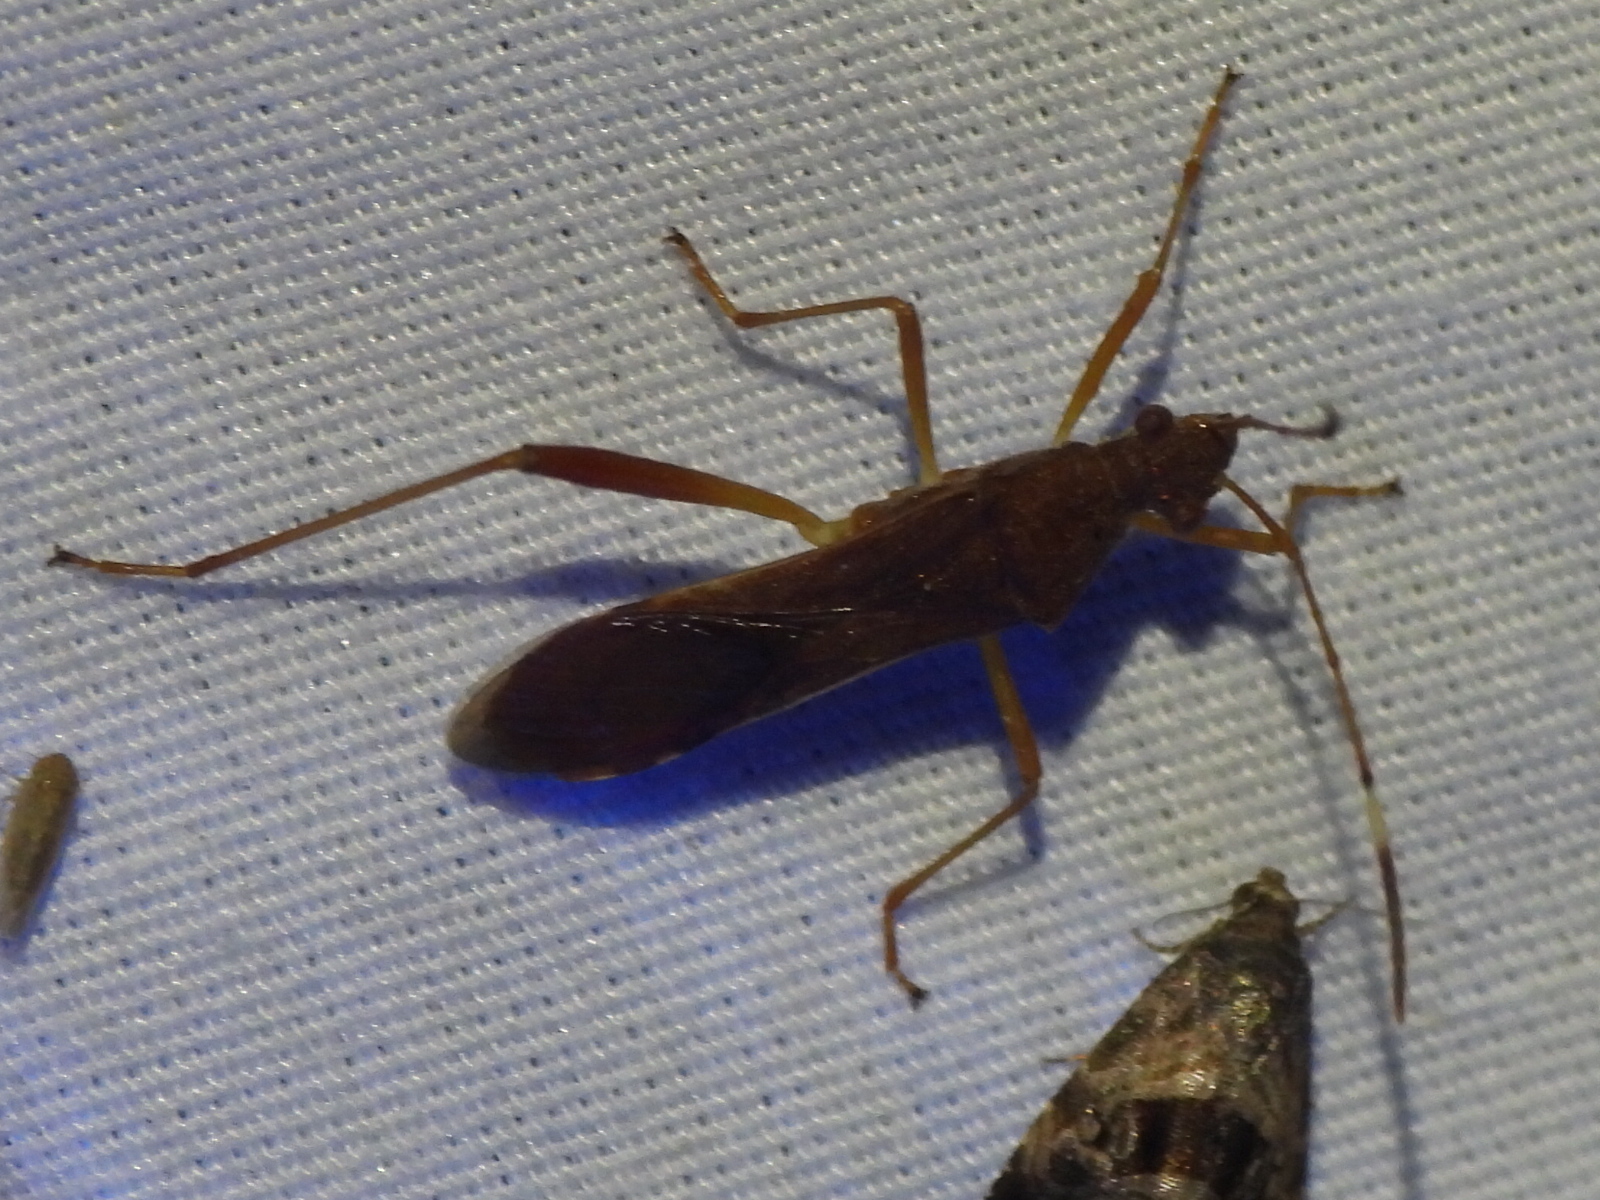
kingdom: Animalia
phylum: Arthropoda
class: Insecta
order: Hemiptera
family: Alydidae
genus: Megalotomus
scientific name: Megalotomus quinquespinosus
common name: Lupine bug
